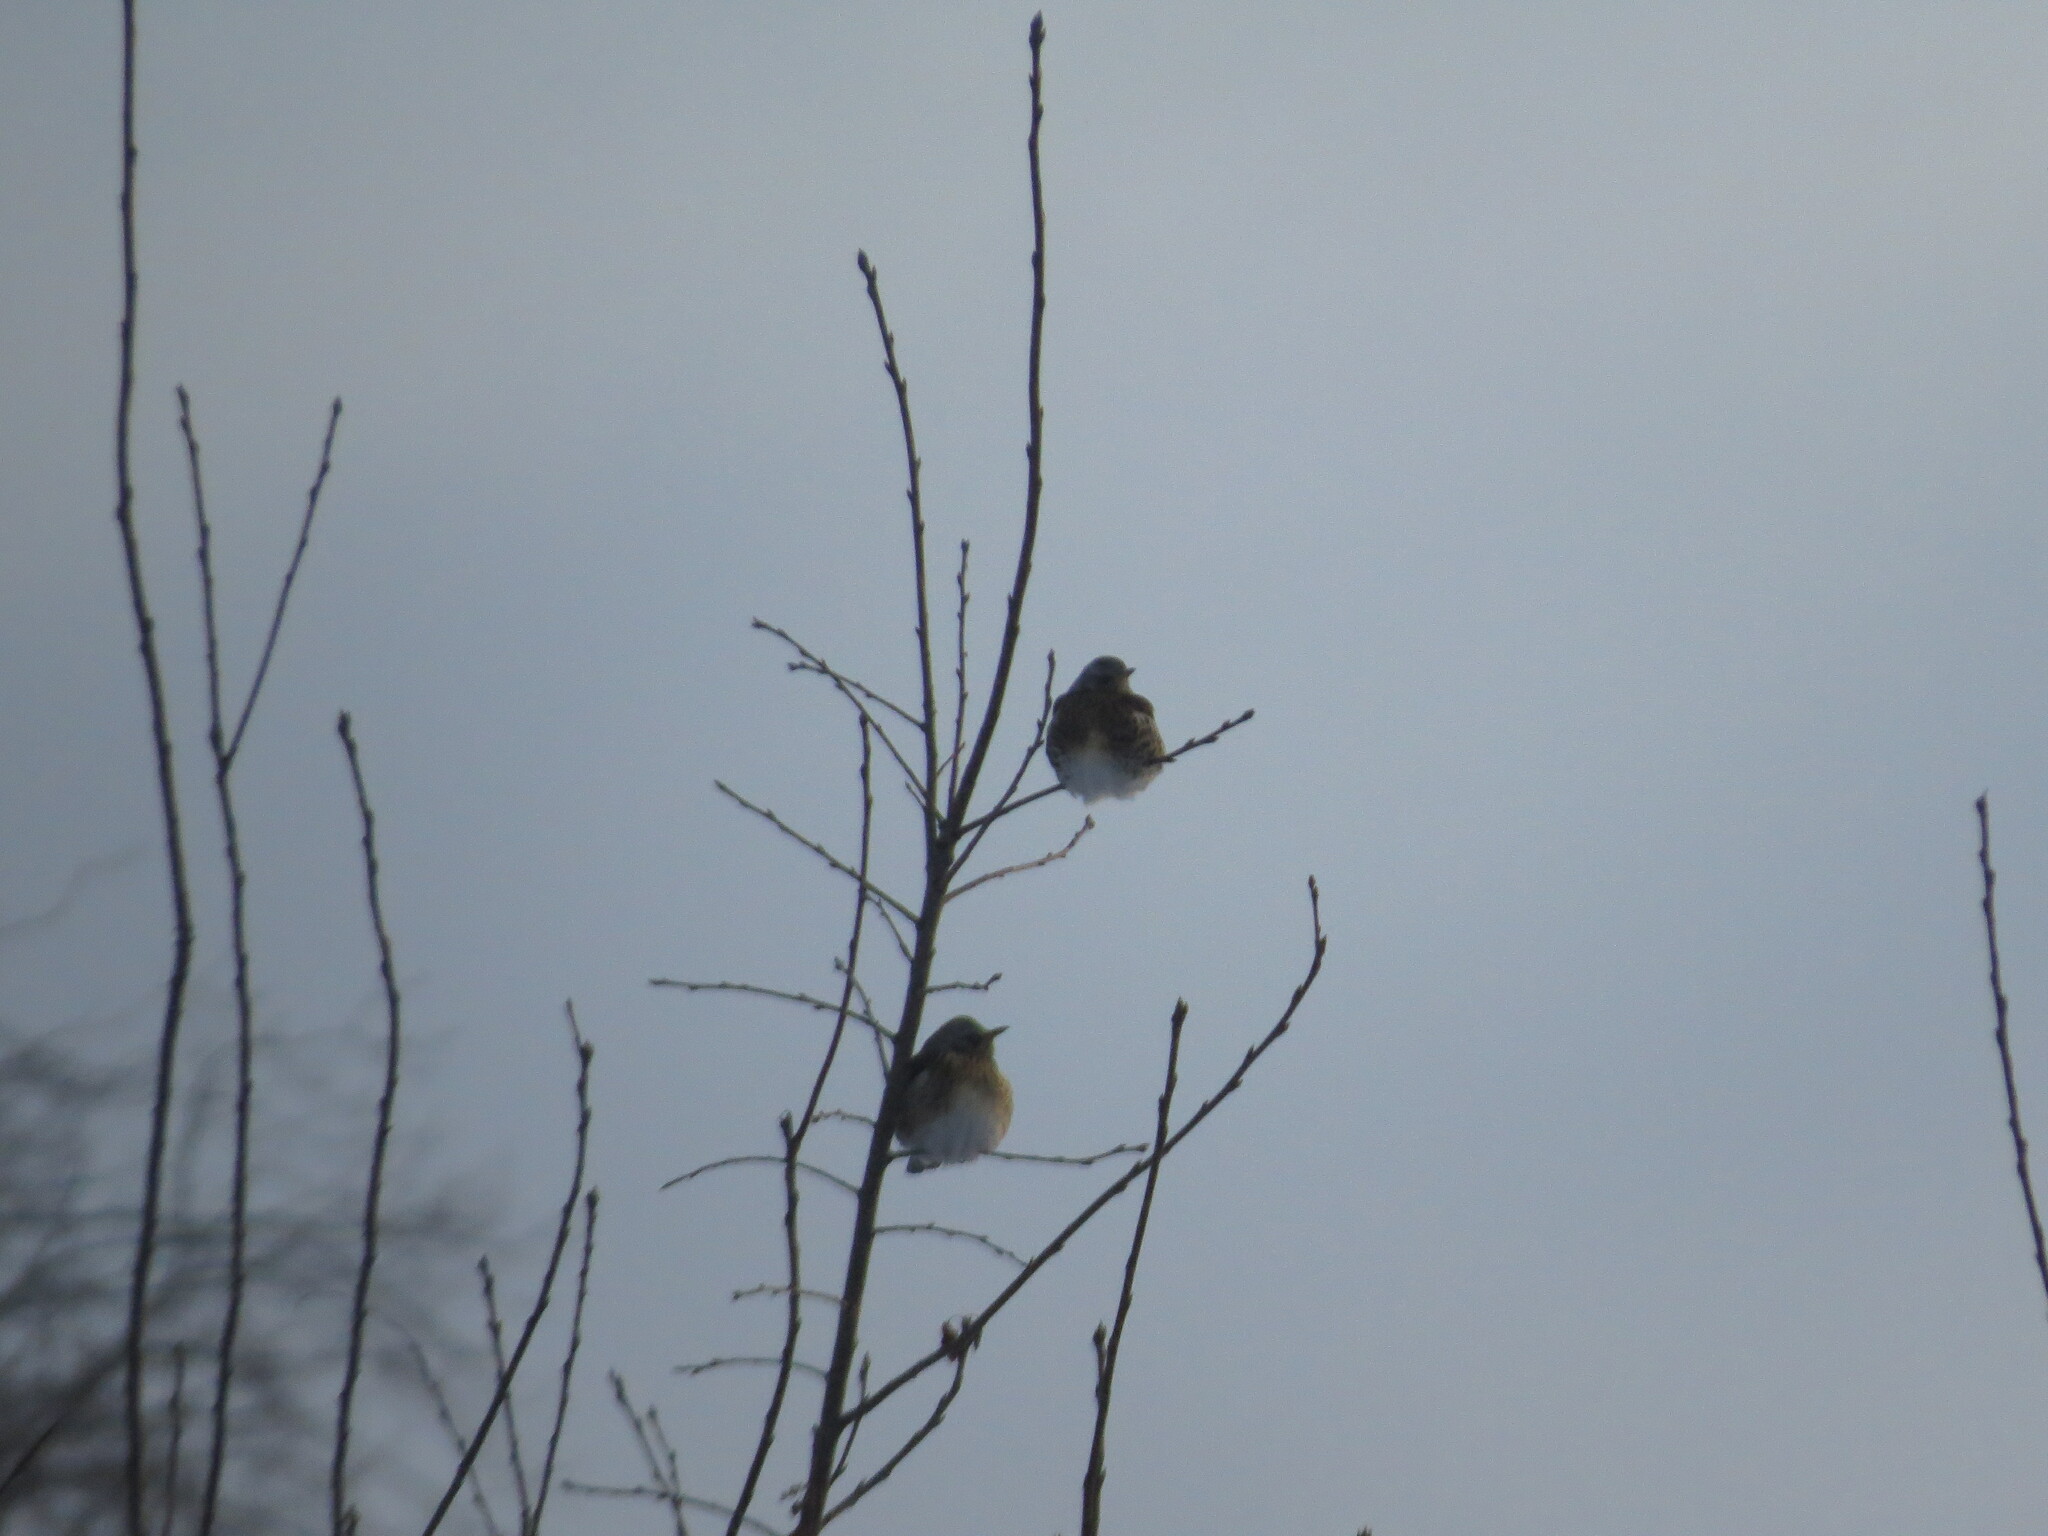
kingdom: Animalia
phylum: Chordata
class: Aves
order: Passeriformes
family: Turdidae
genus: Turdus
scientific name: Turdus pilaris
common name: Fieldfare
